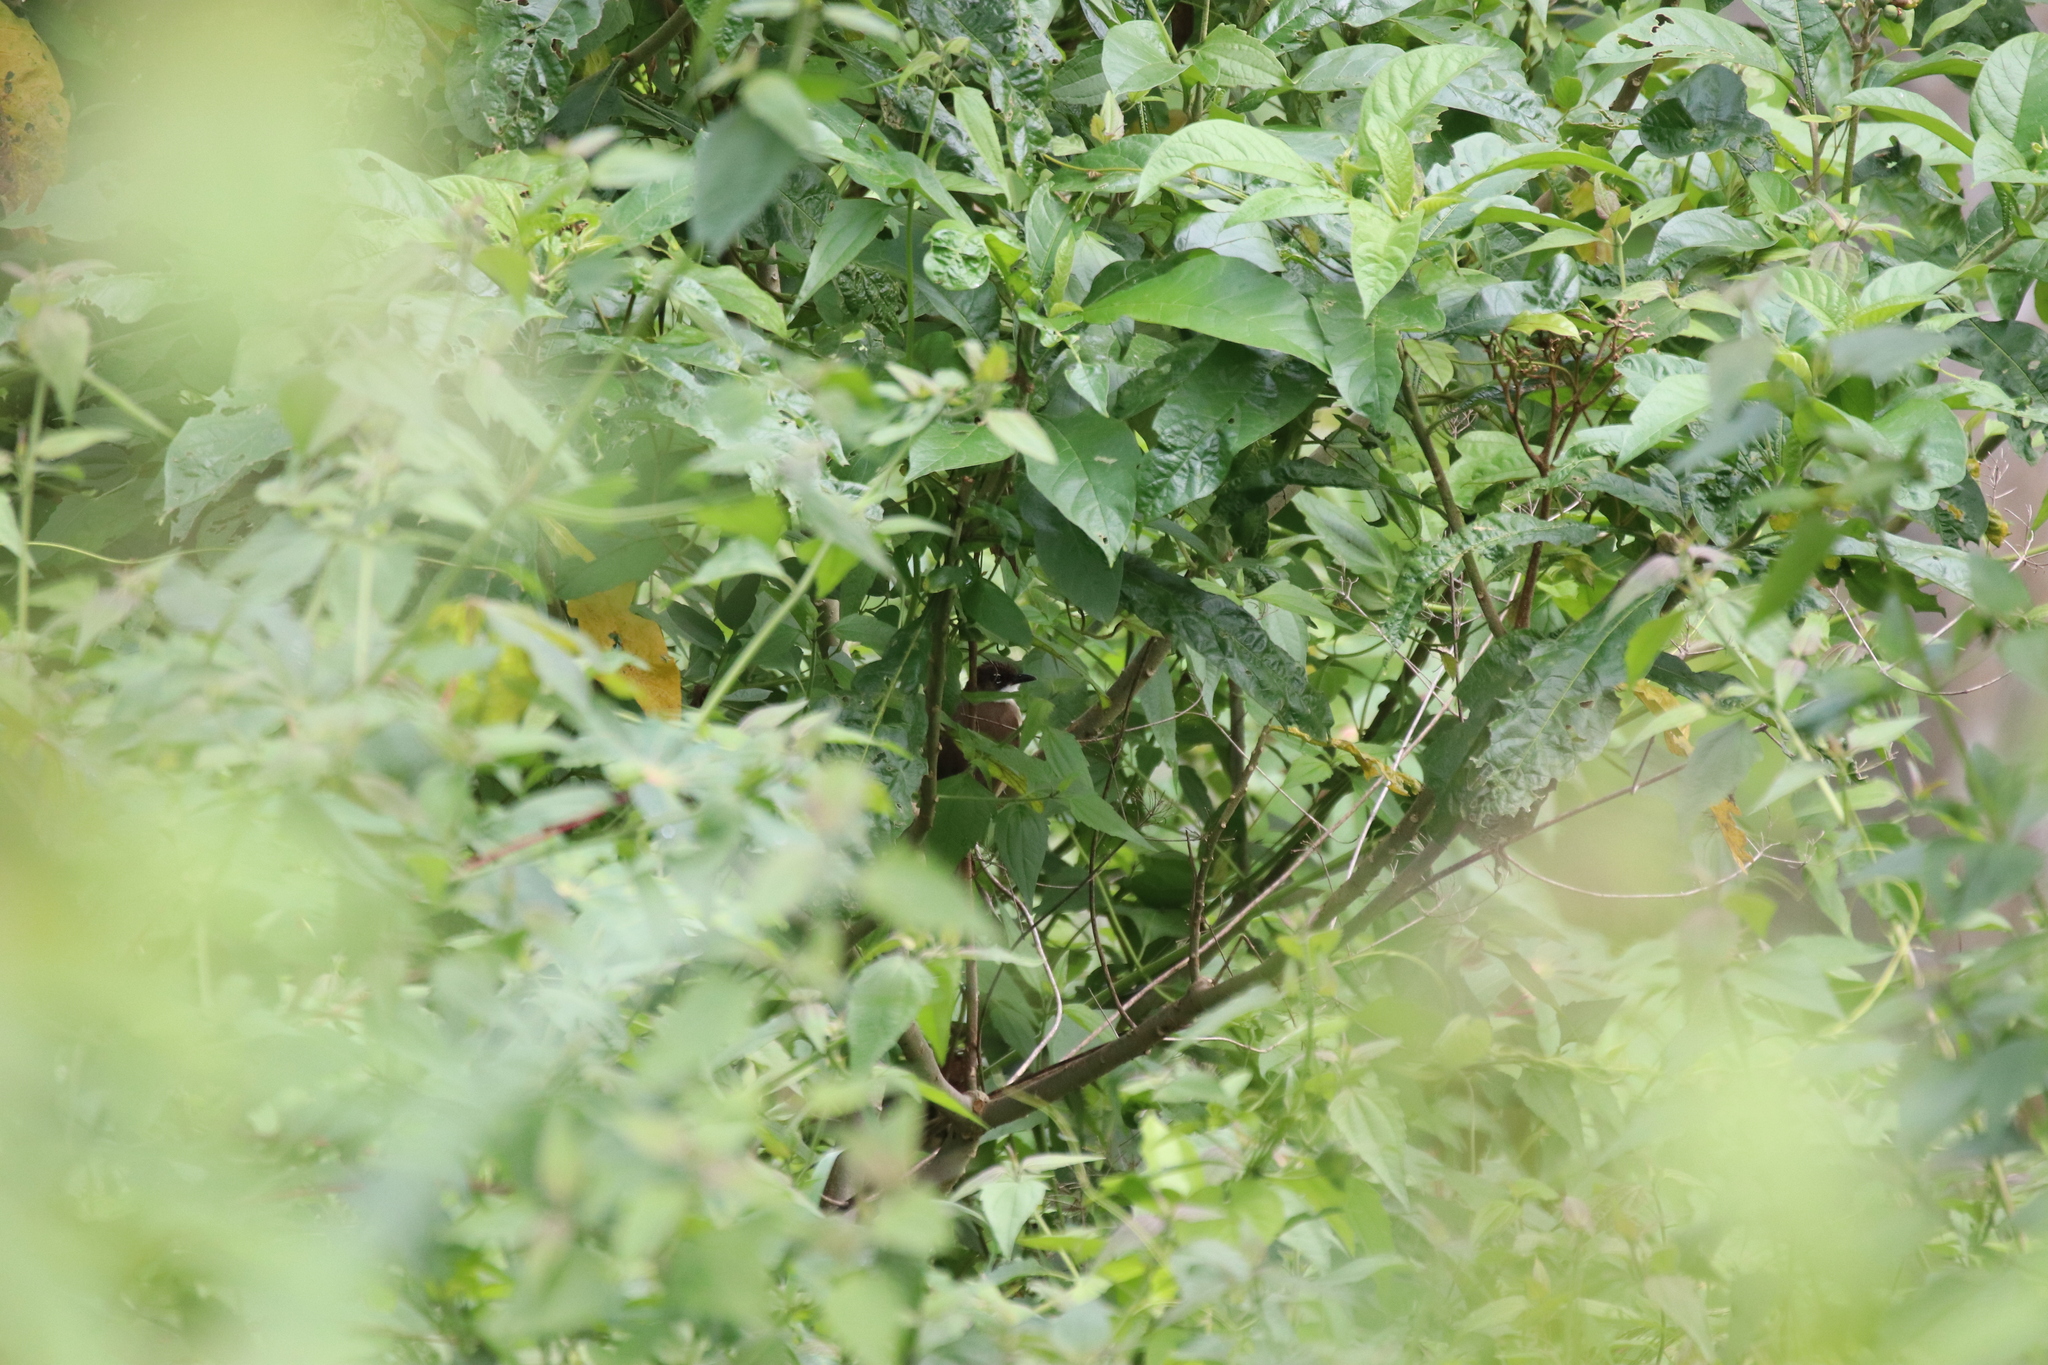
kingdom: Animalia
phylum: Chordata
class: Aves
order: Passeriformes
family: Pycnonotidae
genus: Chlorocichla
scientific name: Chlorocichla simplex
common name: Simple greenbul
